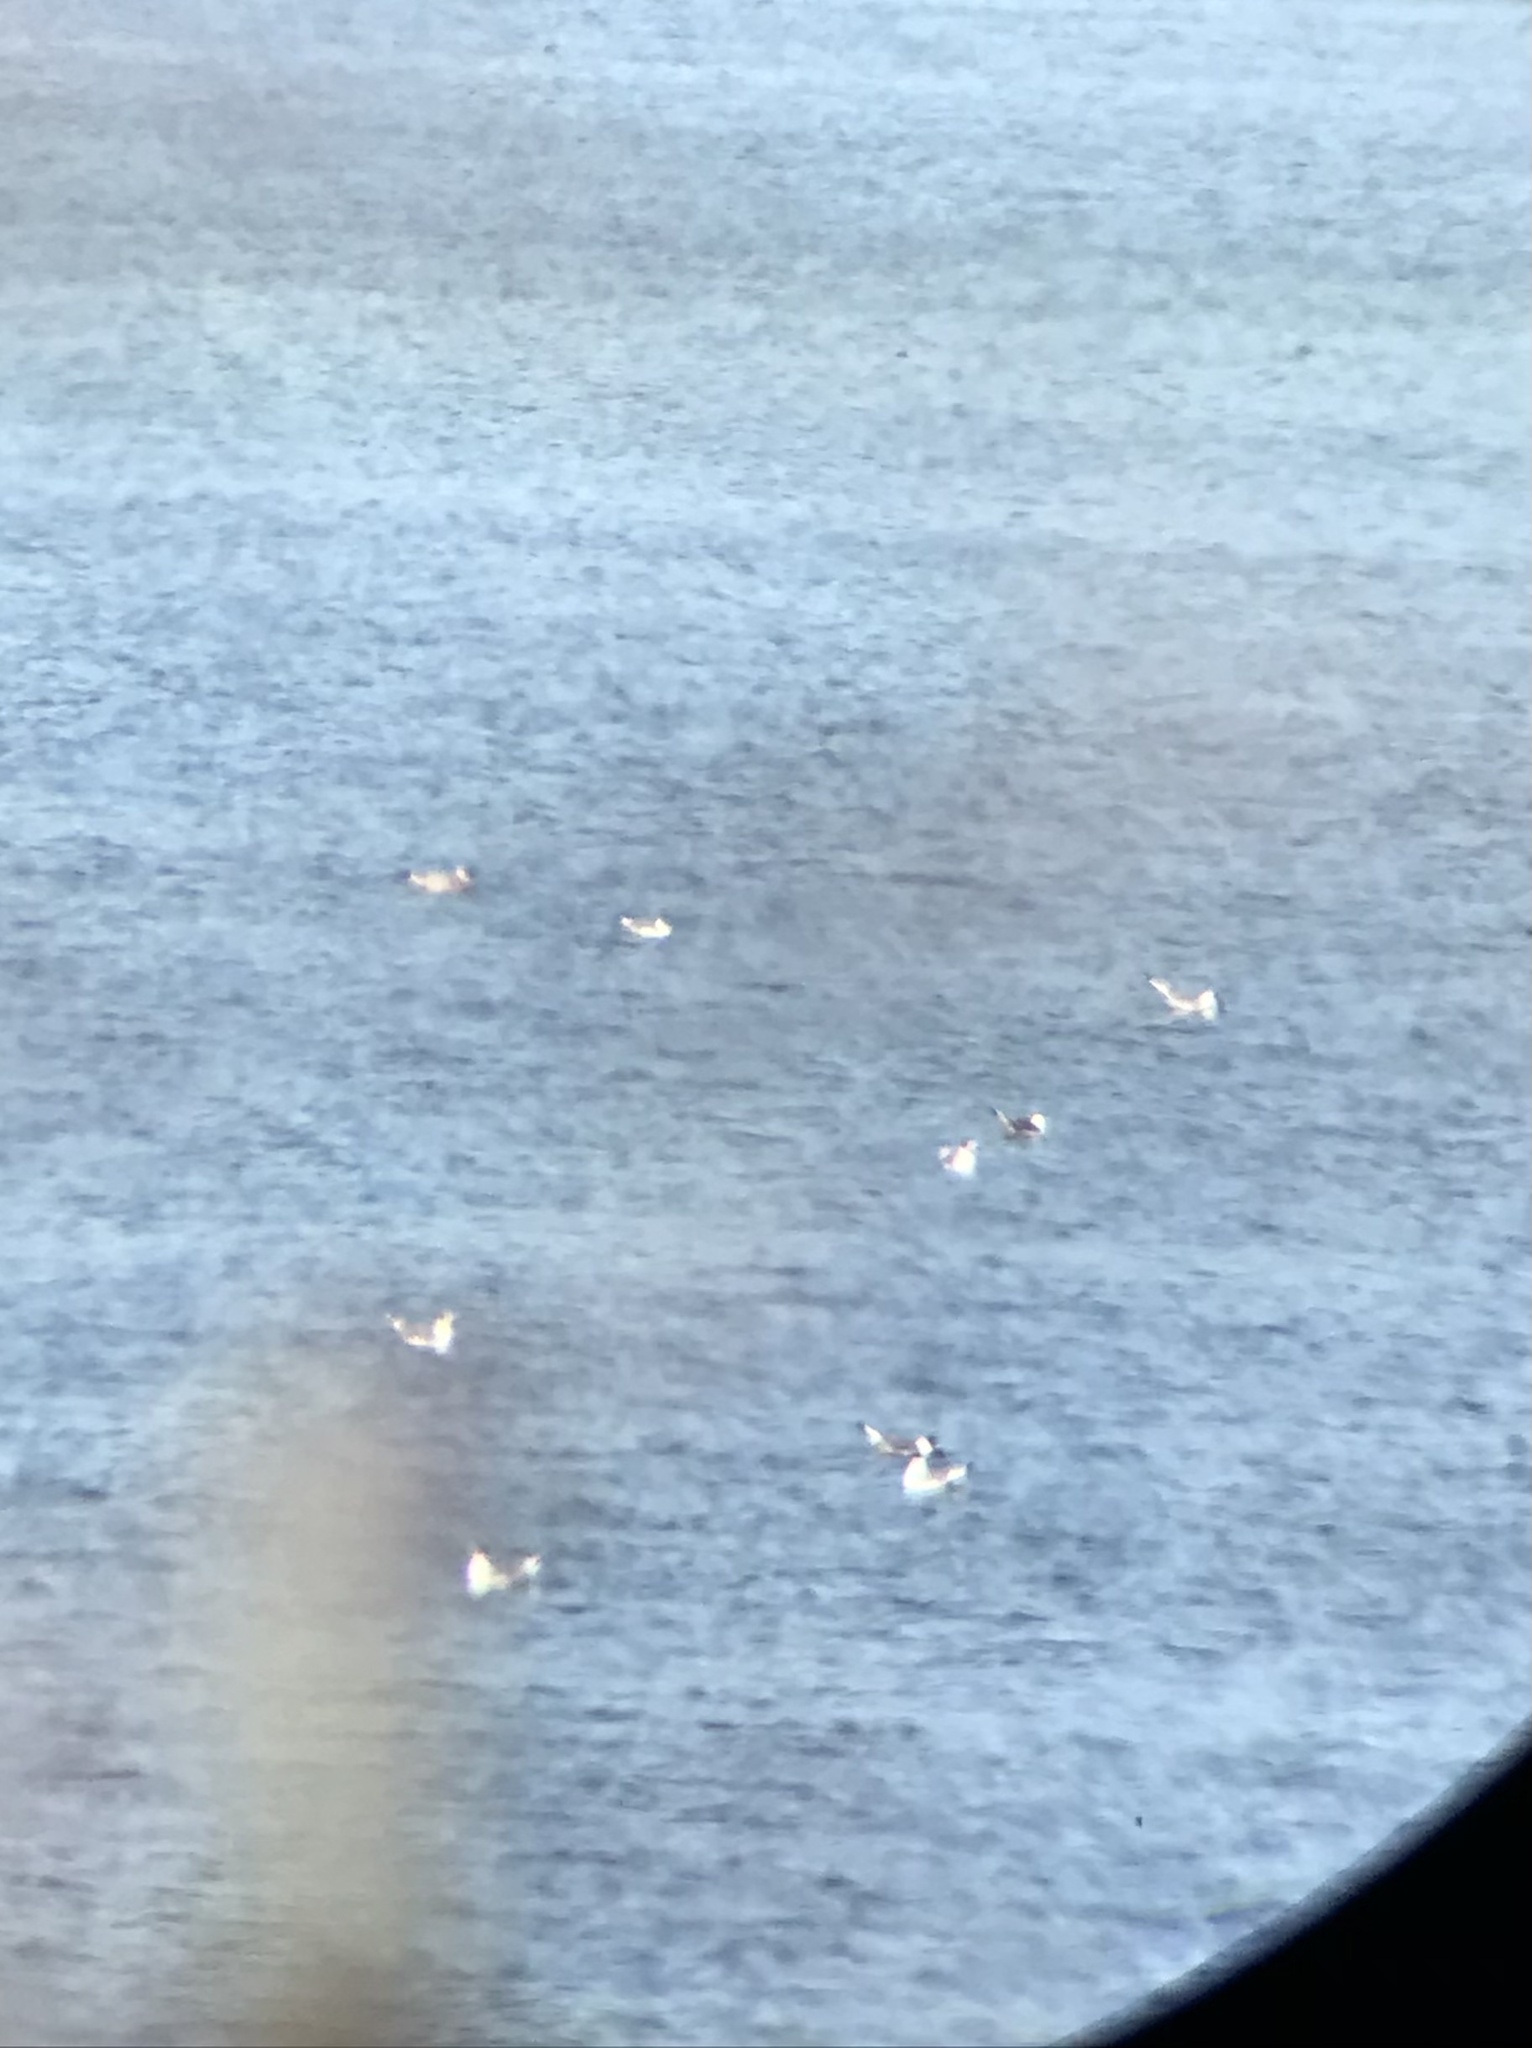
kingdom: Animalia
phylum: Chordata
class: Aves
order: Charadriiformes
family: Laridae
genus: Leucophaeus
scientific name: Leucophaeus pipixcan
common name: Franklin's gull
